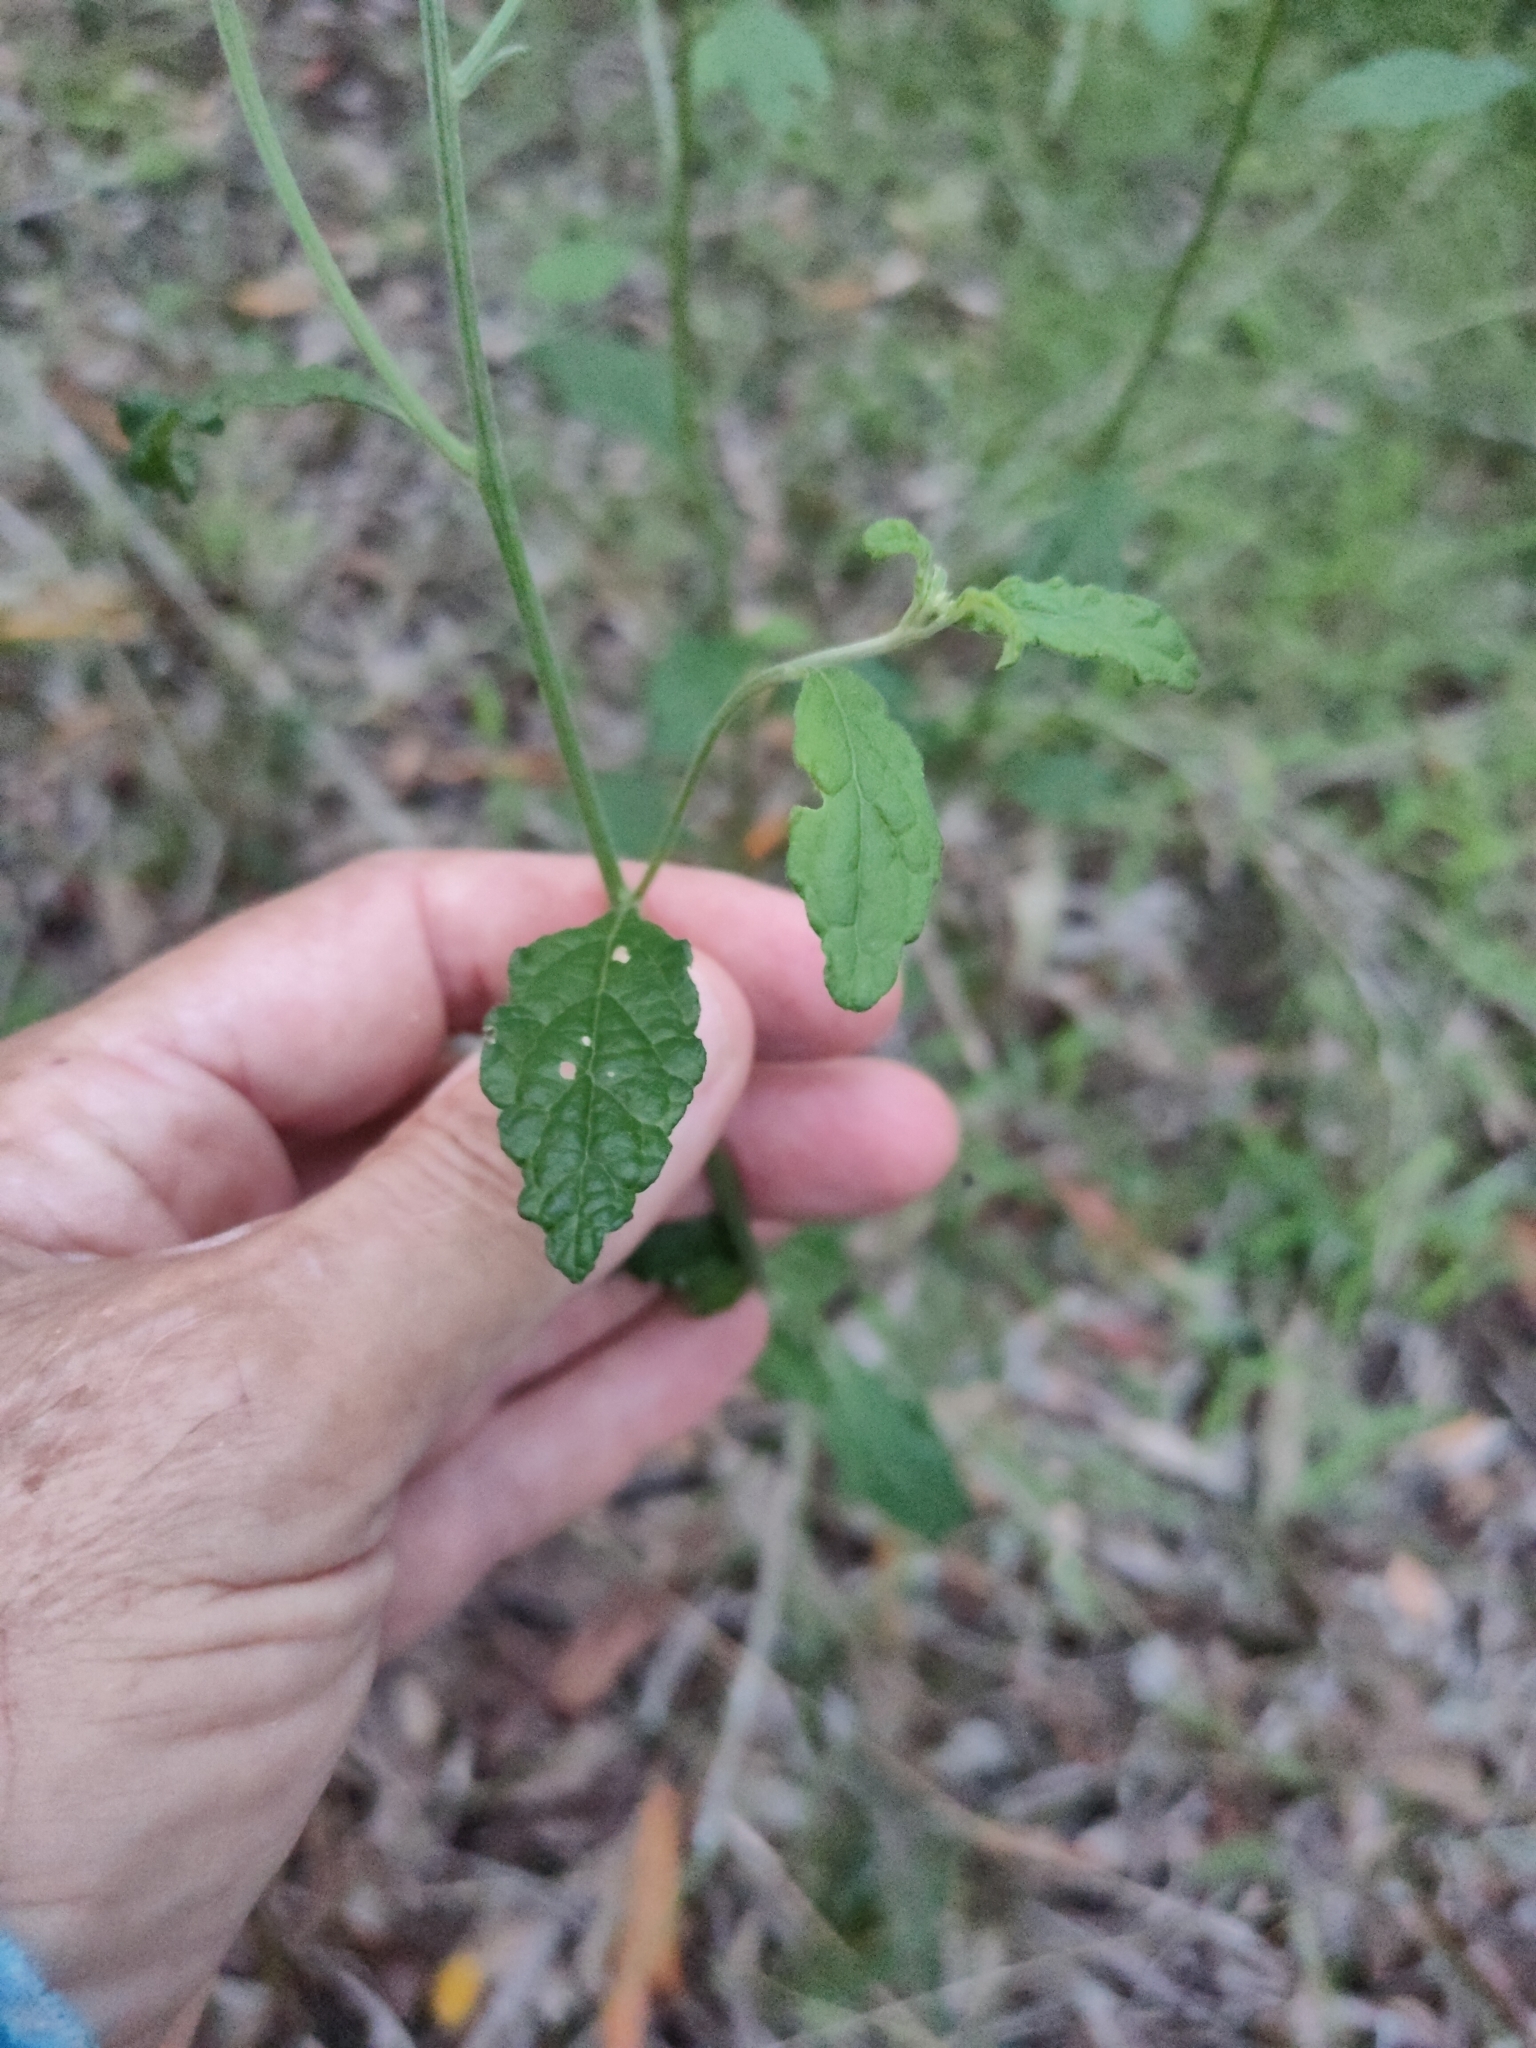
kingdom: Plantae
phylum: Tracheophyta
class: Magnoliopsida
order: Asterales
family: Asteraceae
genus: Cyanthillium
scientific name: Cyanthillium cinereum
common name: Little ironweed
